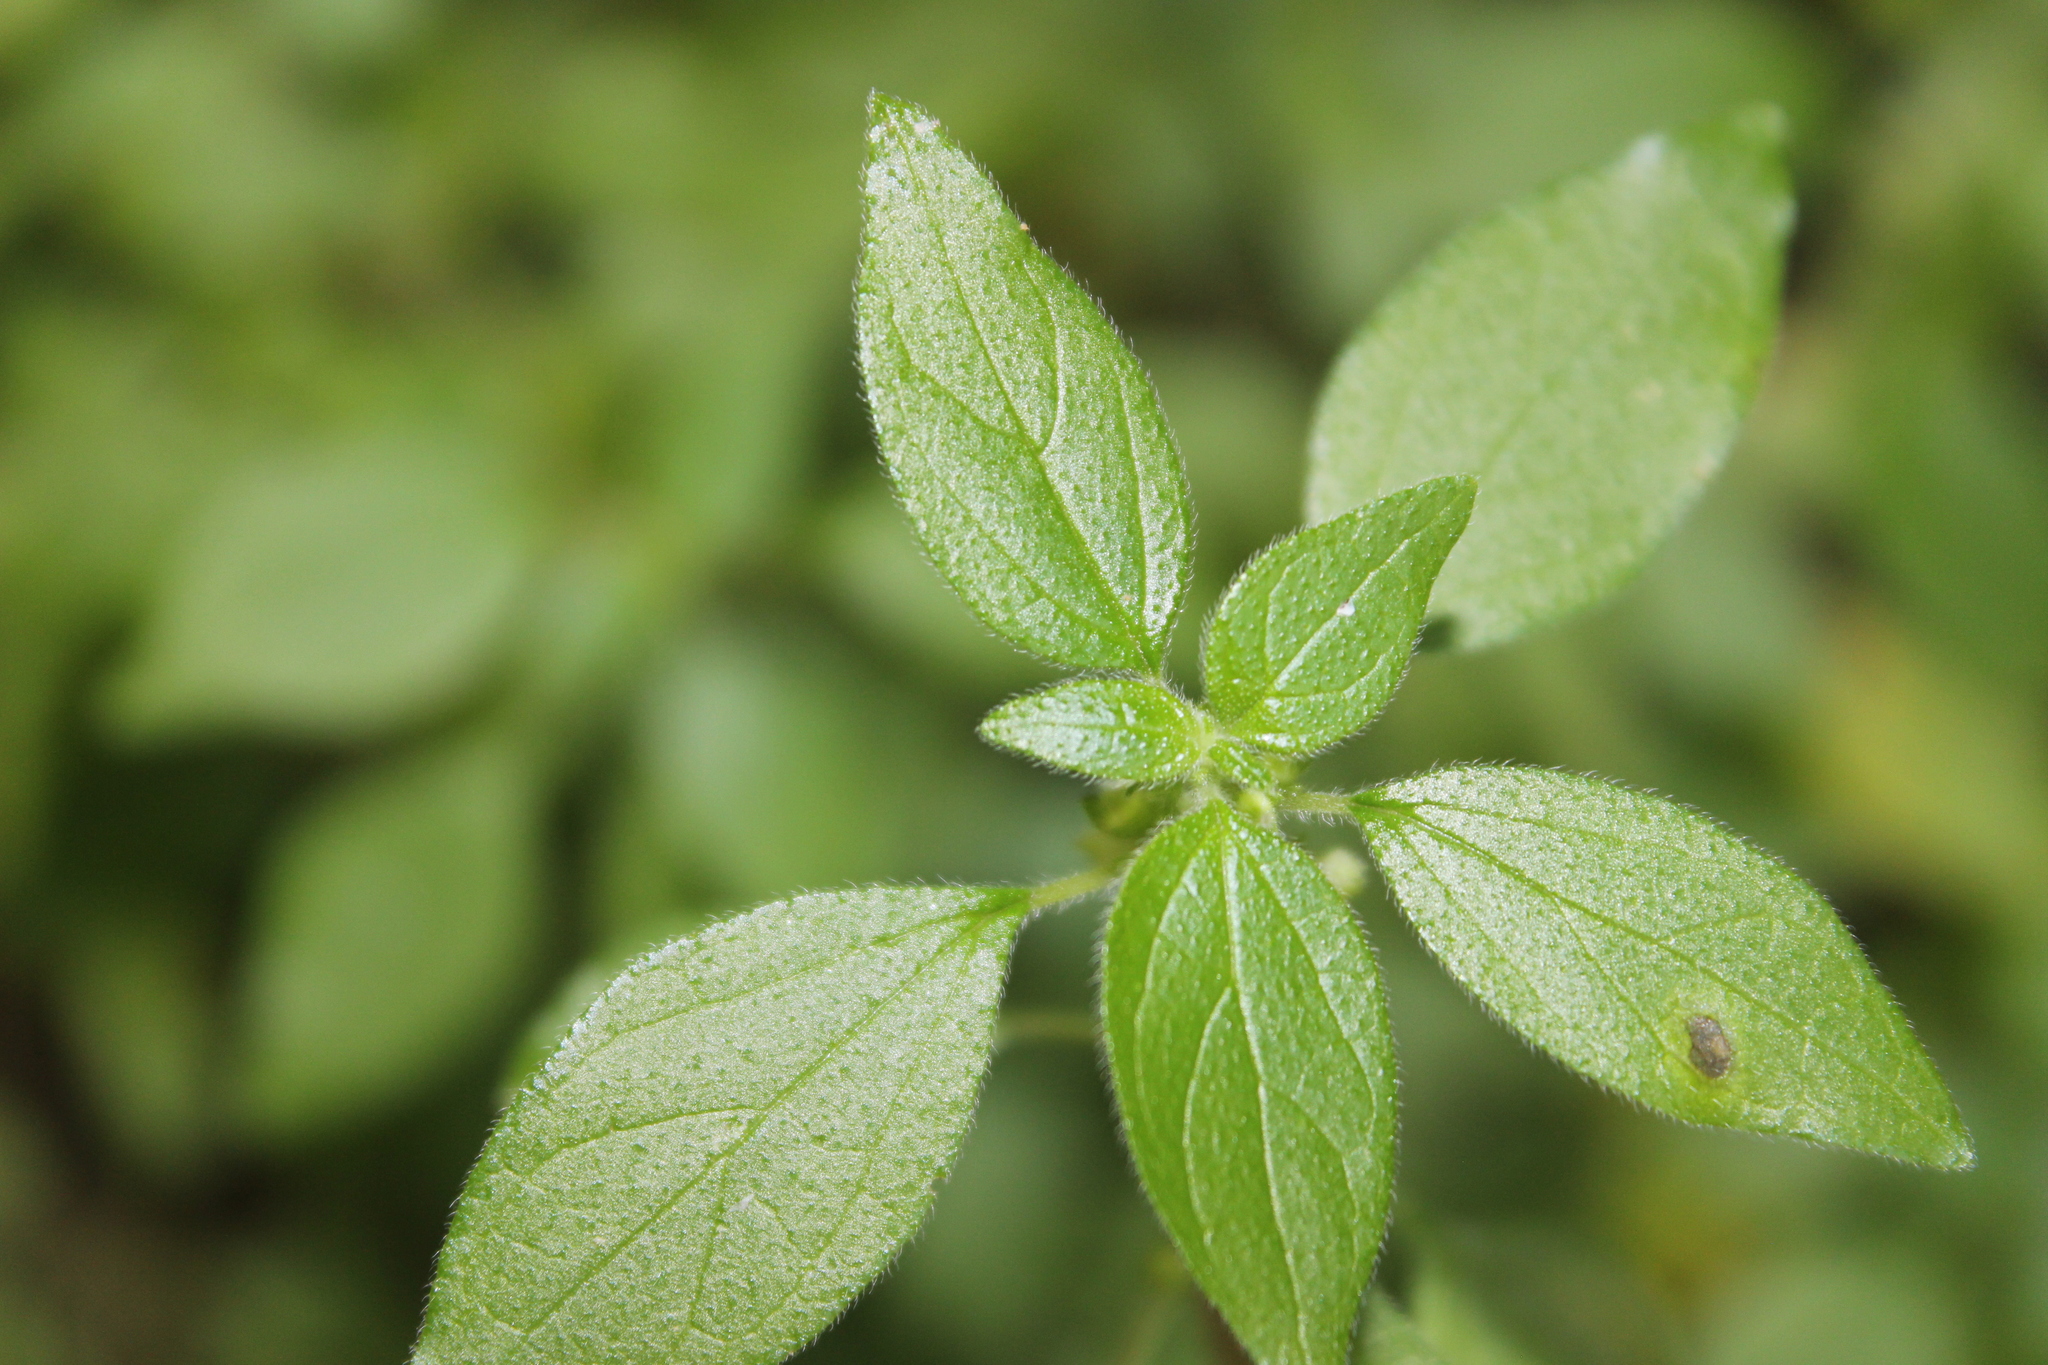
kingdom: Plantae
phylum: Tracheophyta
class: Magnoliopsida
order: Rosales
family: Urticaceae
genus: Parietaria
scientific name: Parietaria judaica
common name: Pellitory-of-the-wall
